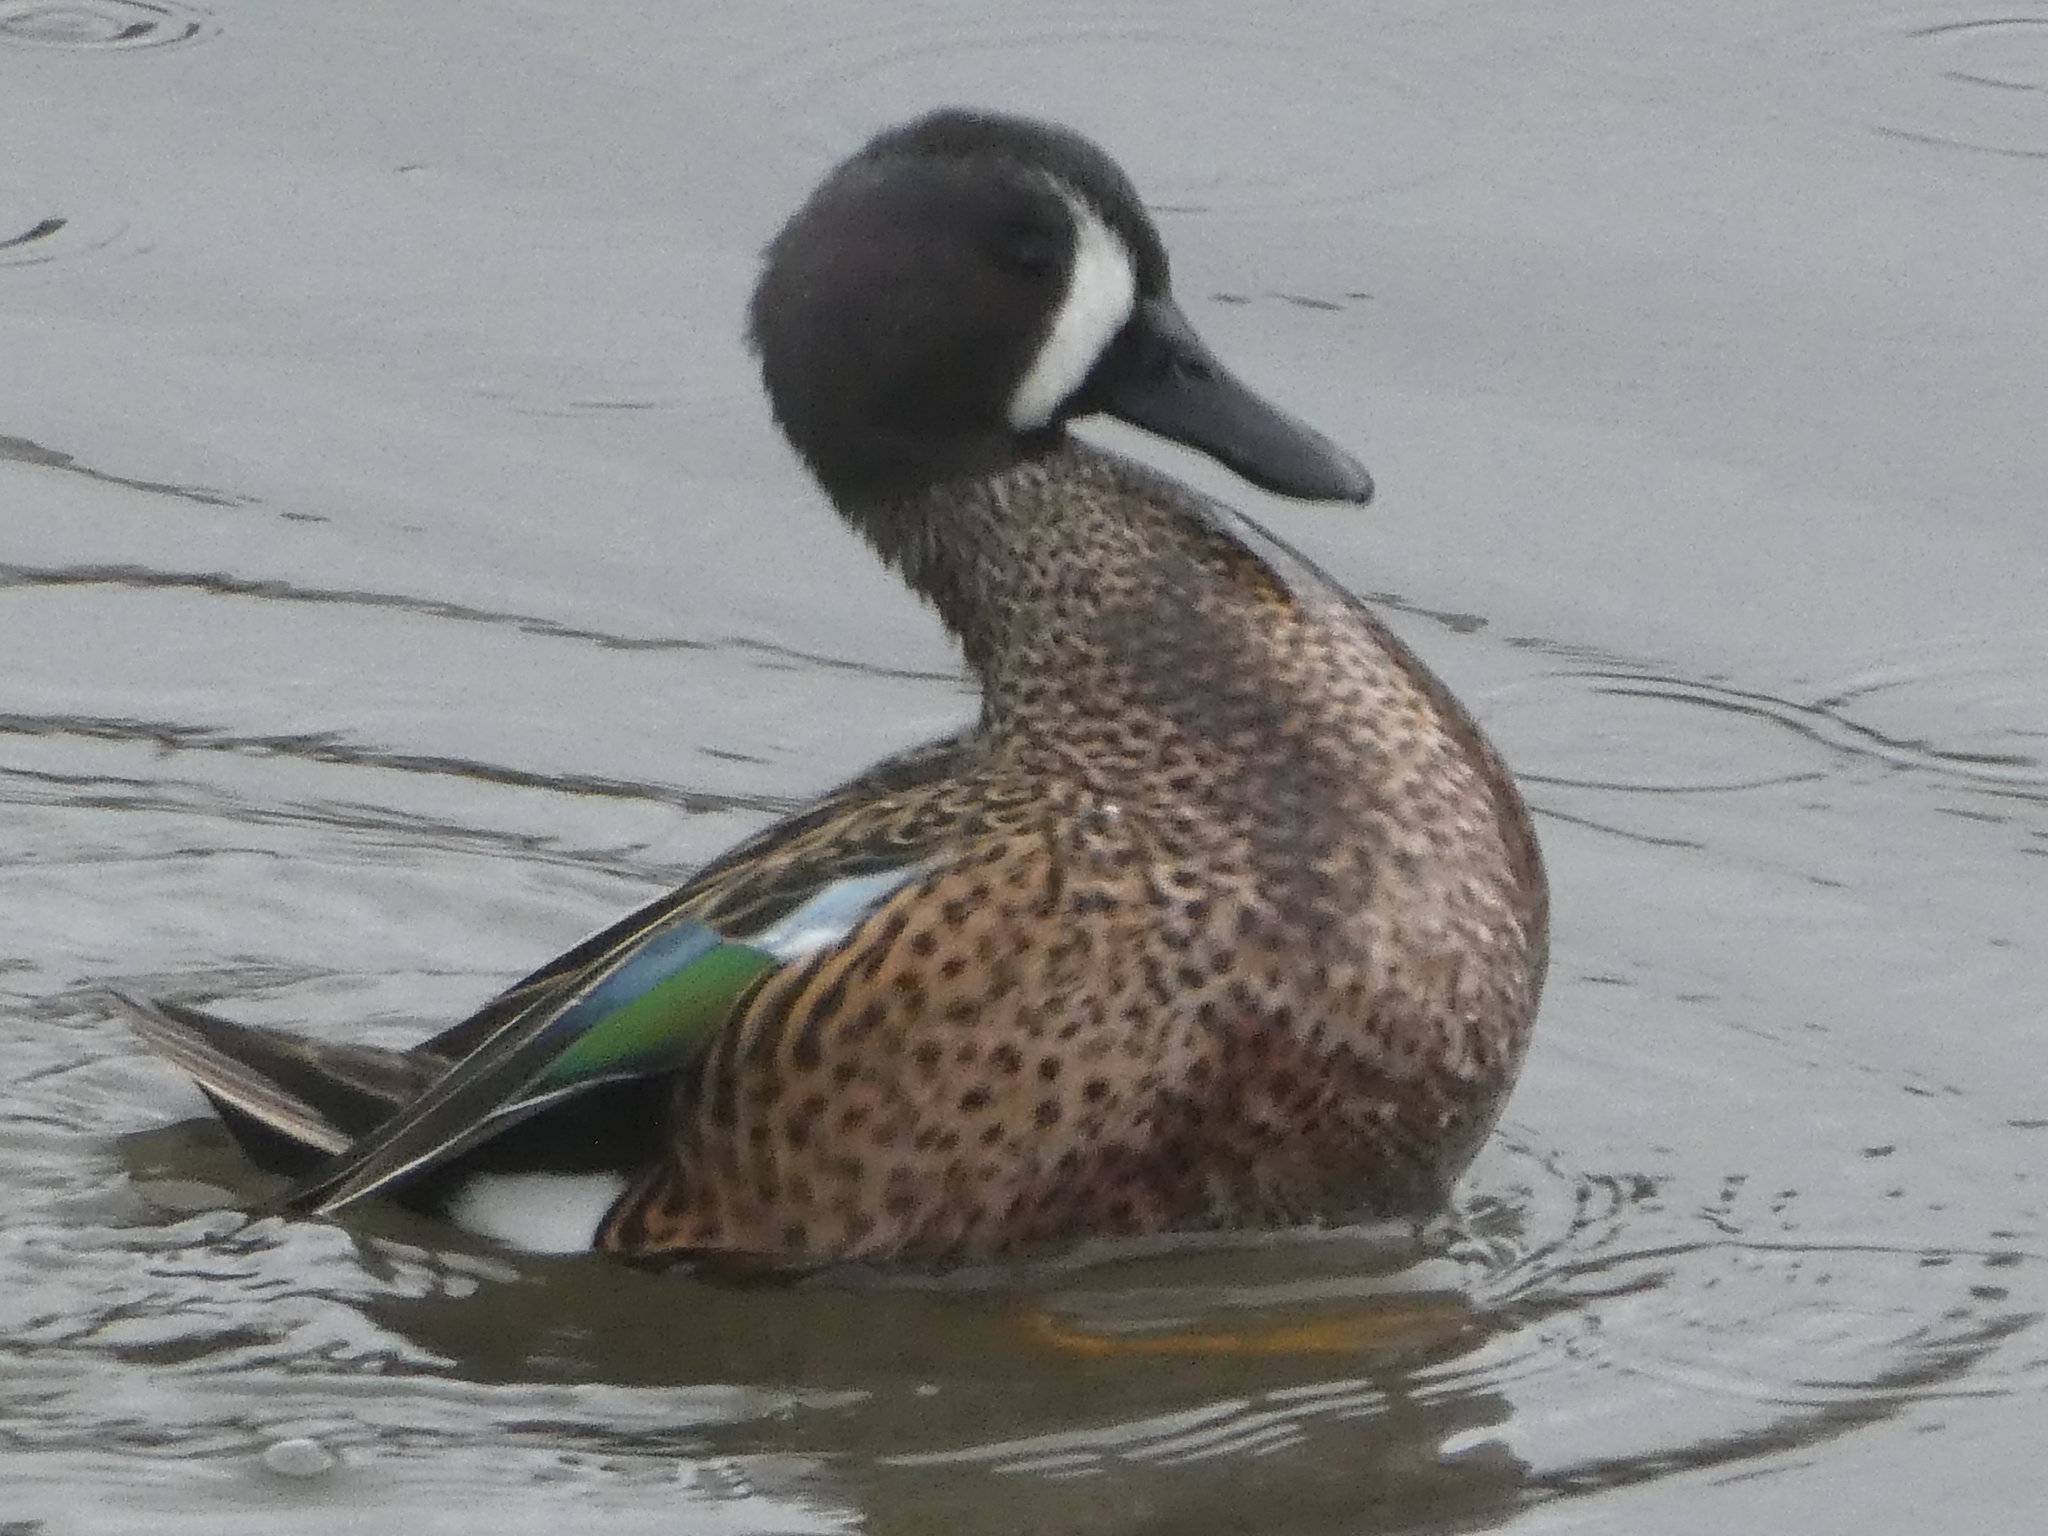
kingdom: Animalia
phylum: Chordata
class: Aves
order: Anseriformes
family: Anatidae
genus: Spatula
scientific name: Spatula discors
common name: Blue-winged teal
